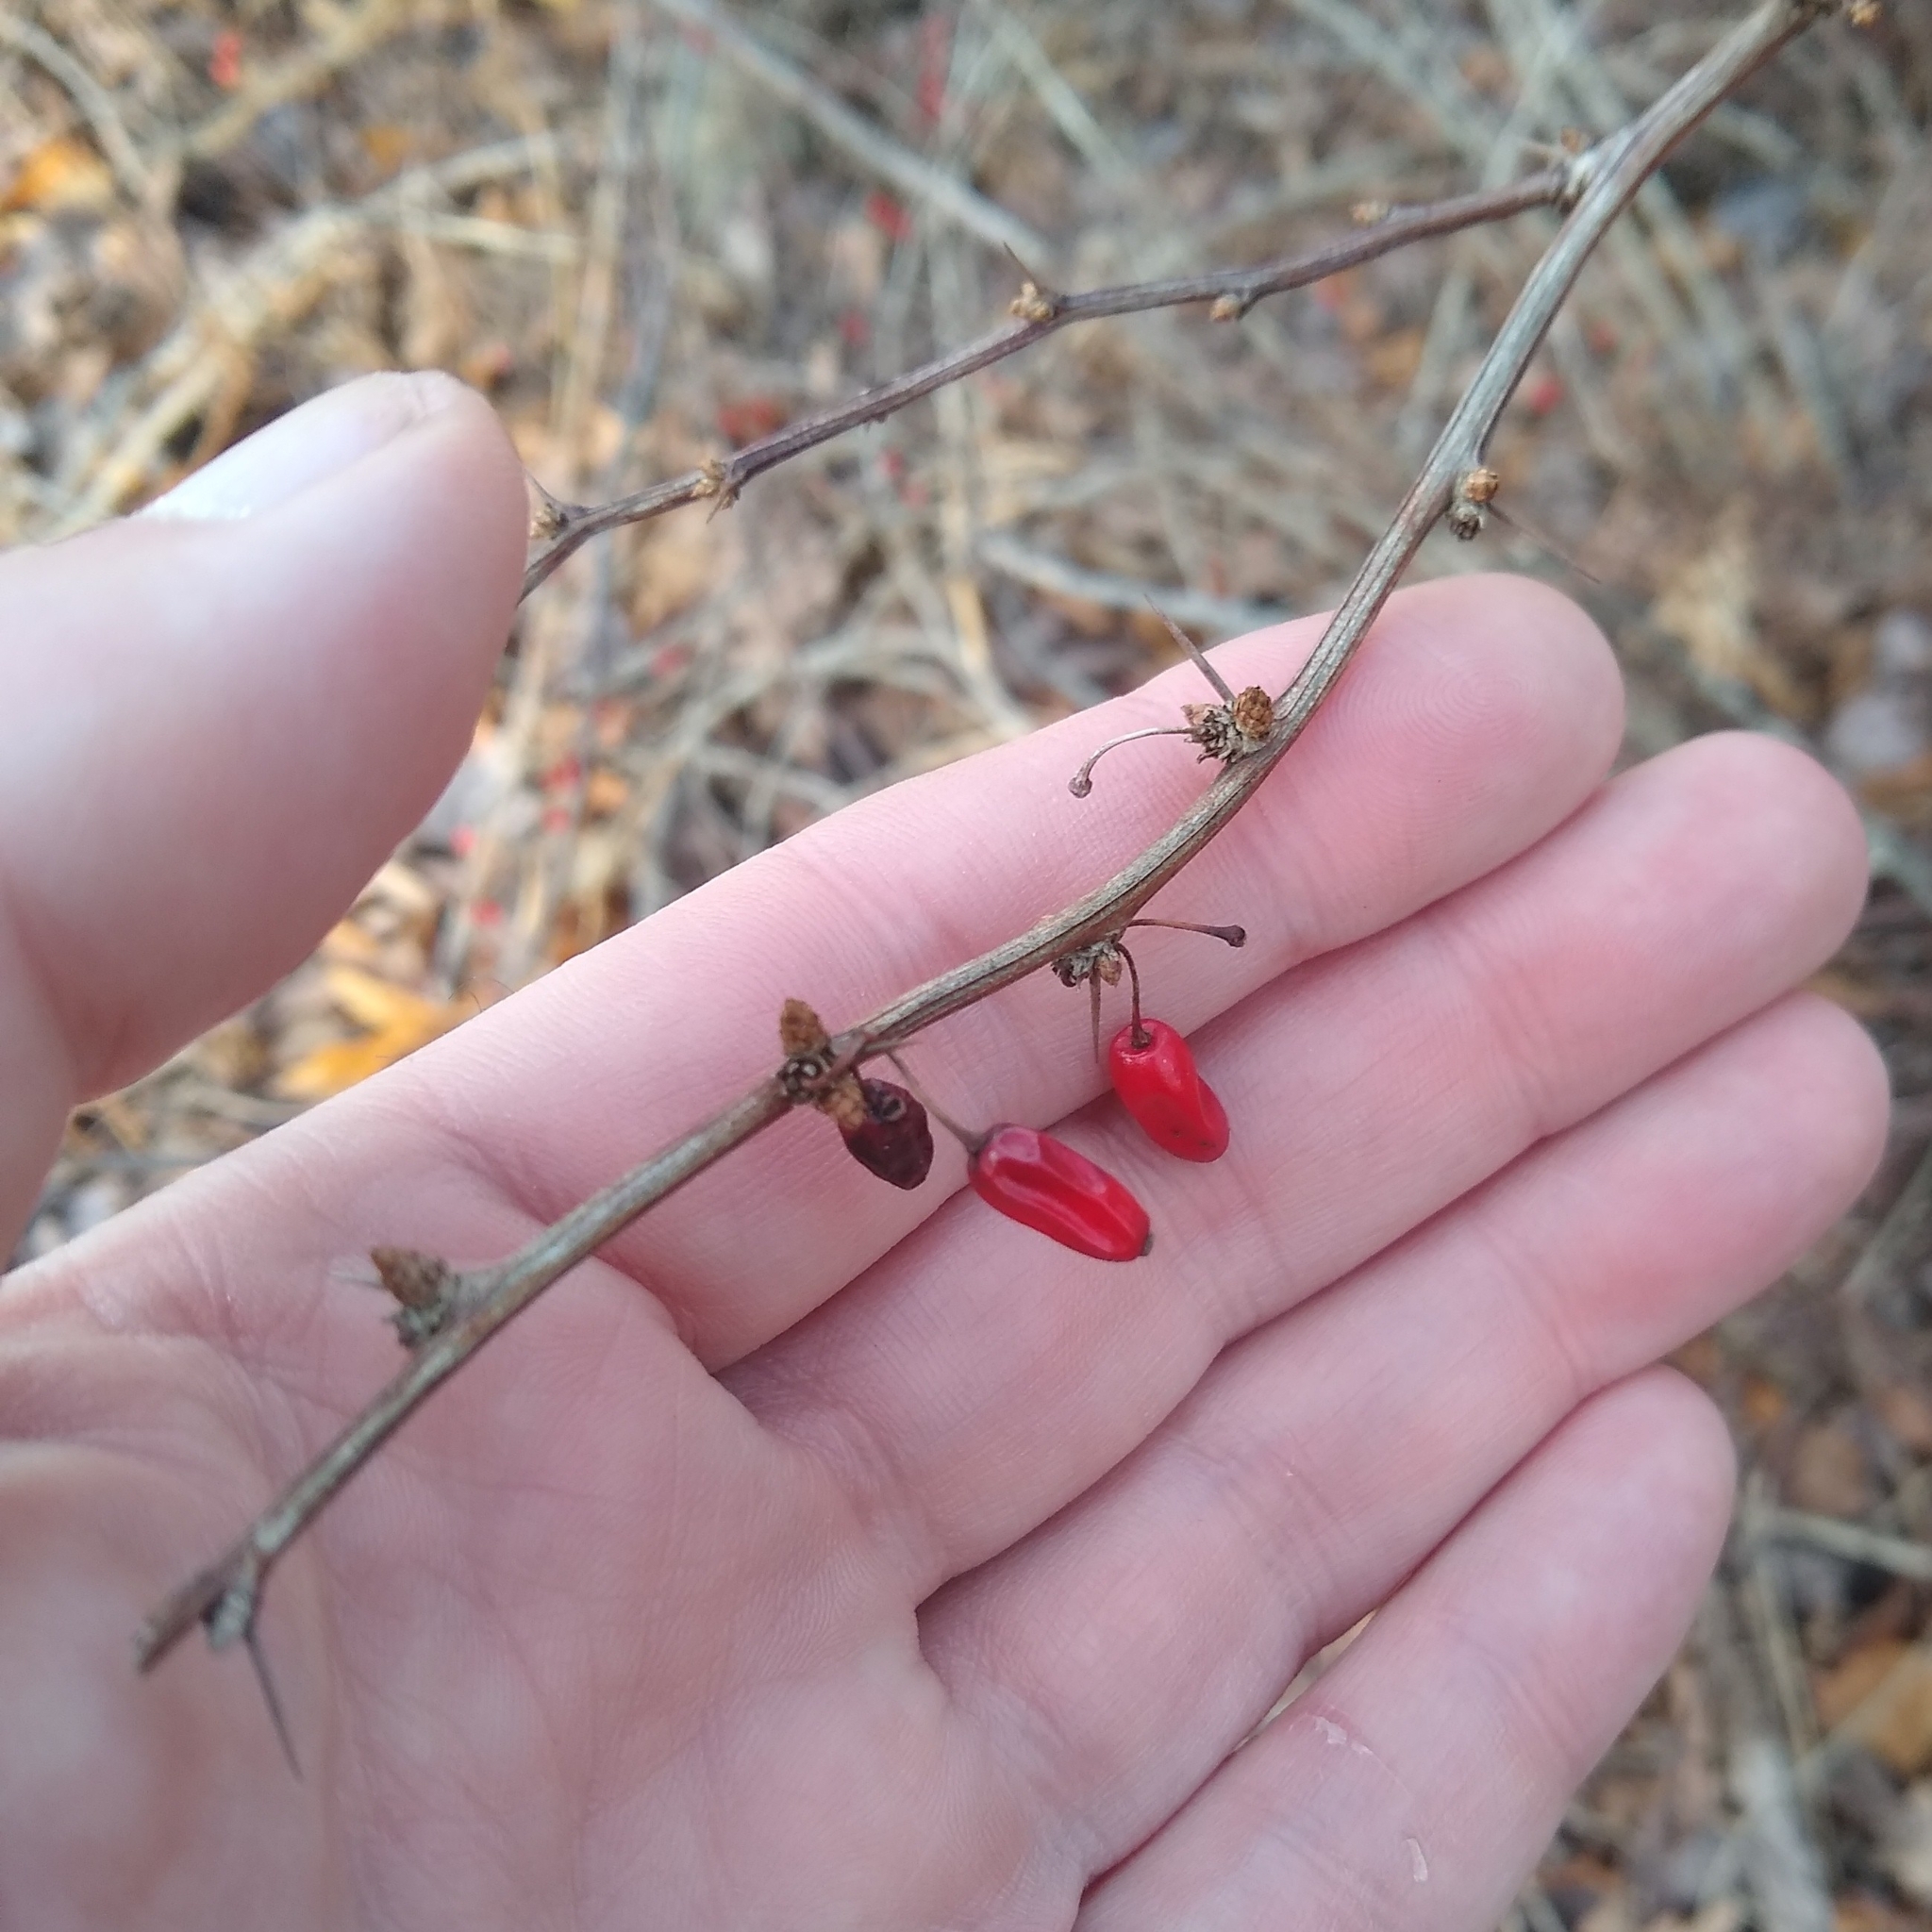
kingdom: Plantae
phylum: Tracheophyta
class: Magnoliopsida
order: Ranunculales
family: Berberidaceae
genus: Berberis
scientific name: Berberis thunbergii
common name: Japanese barberry
